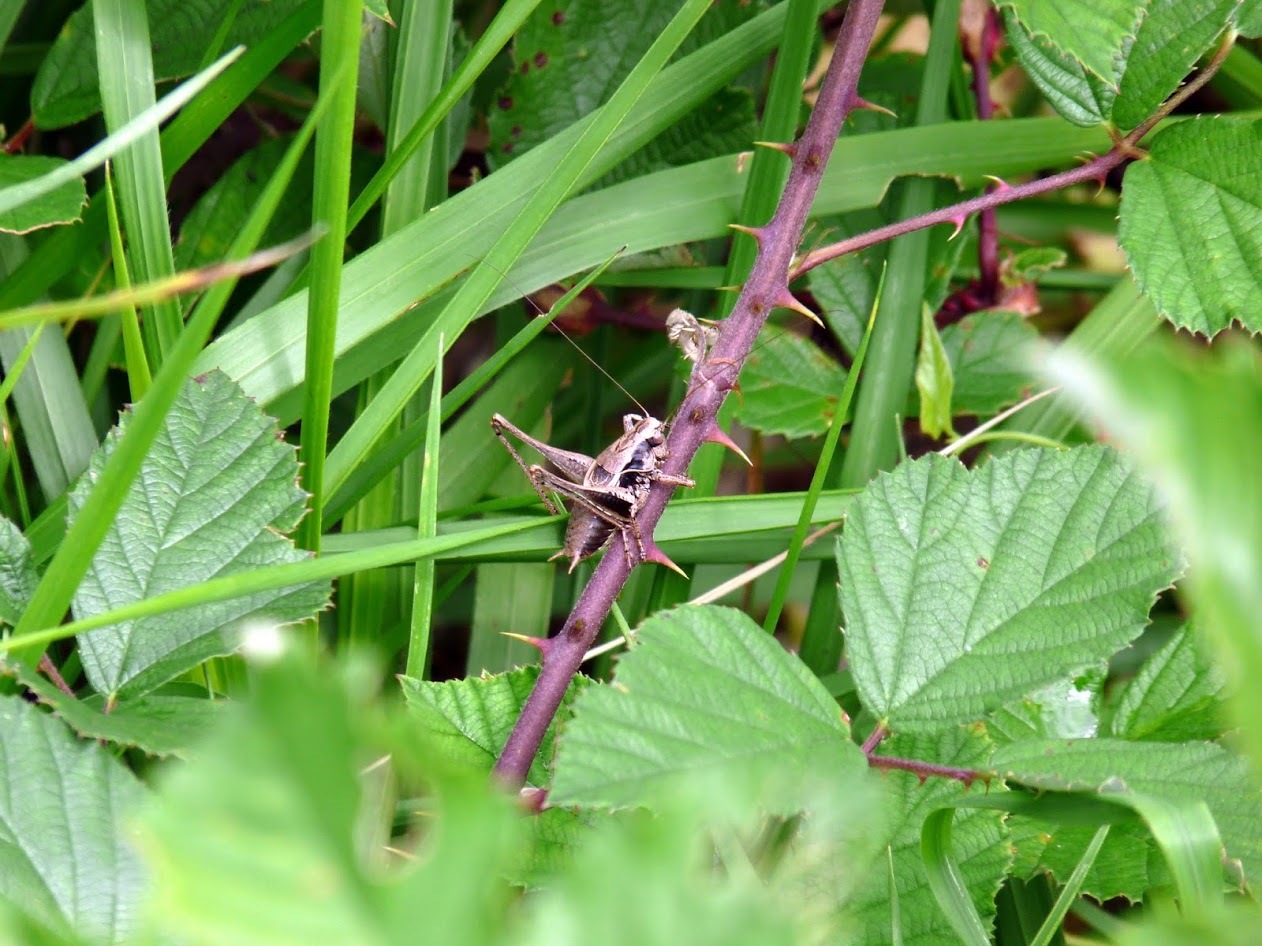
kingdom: Animalia
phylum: Arthropoda
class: Insecta
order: Orthoptera
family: Tettigoniidae
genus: Pholidoptera
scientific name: Pholidoptera griseoaptera
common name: Dark bush-cricket
